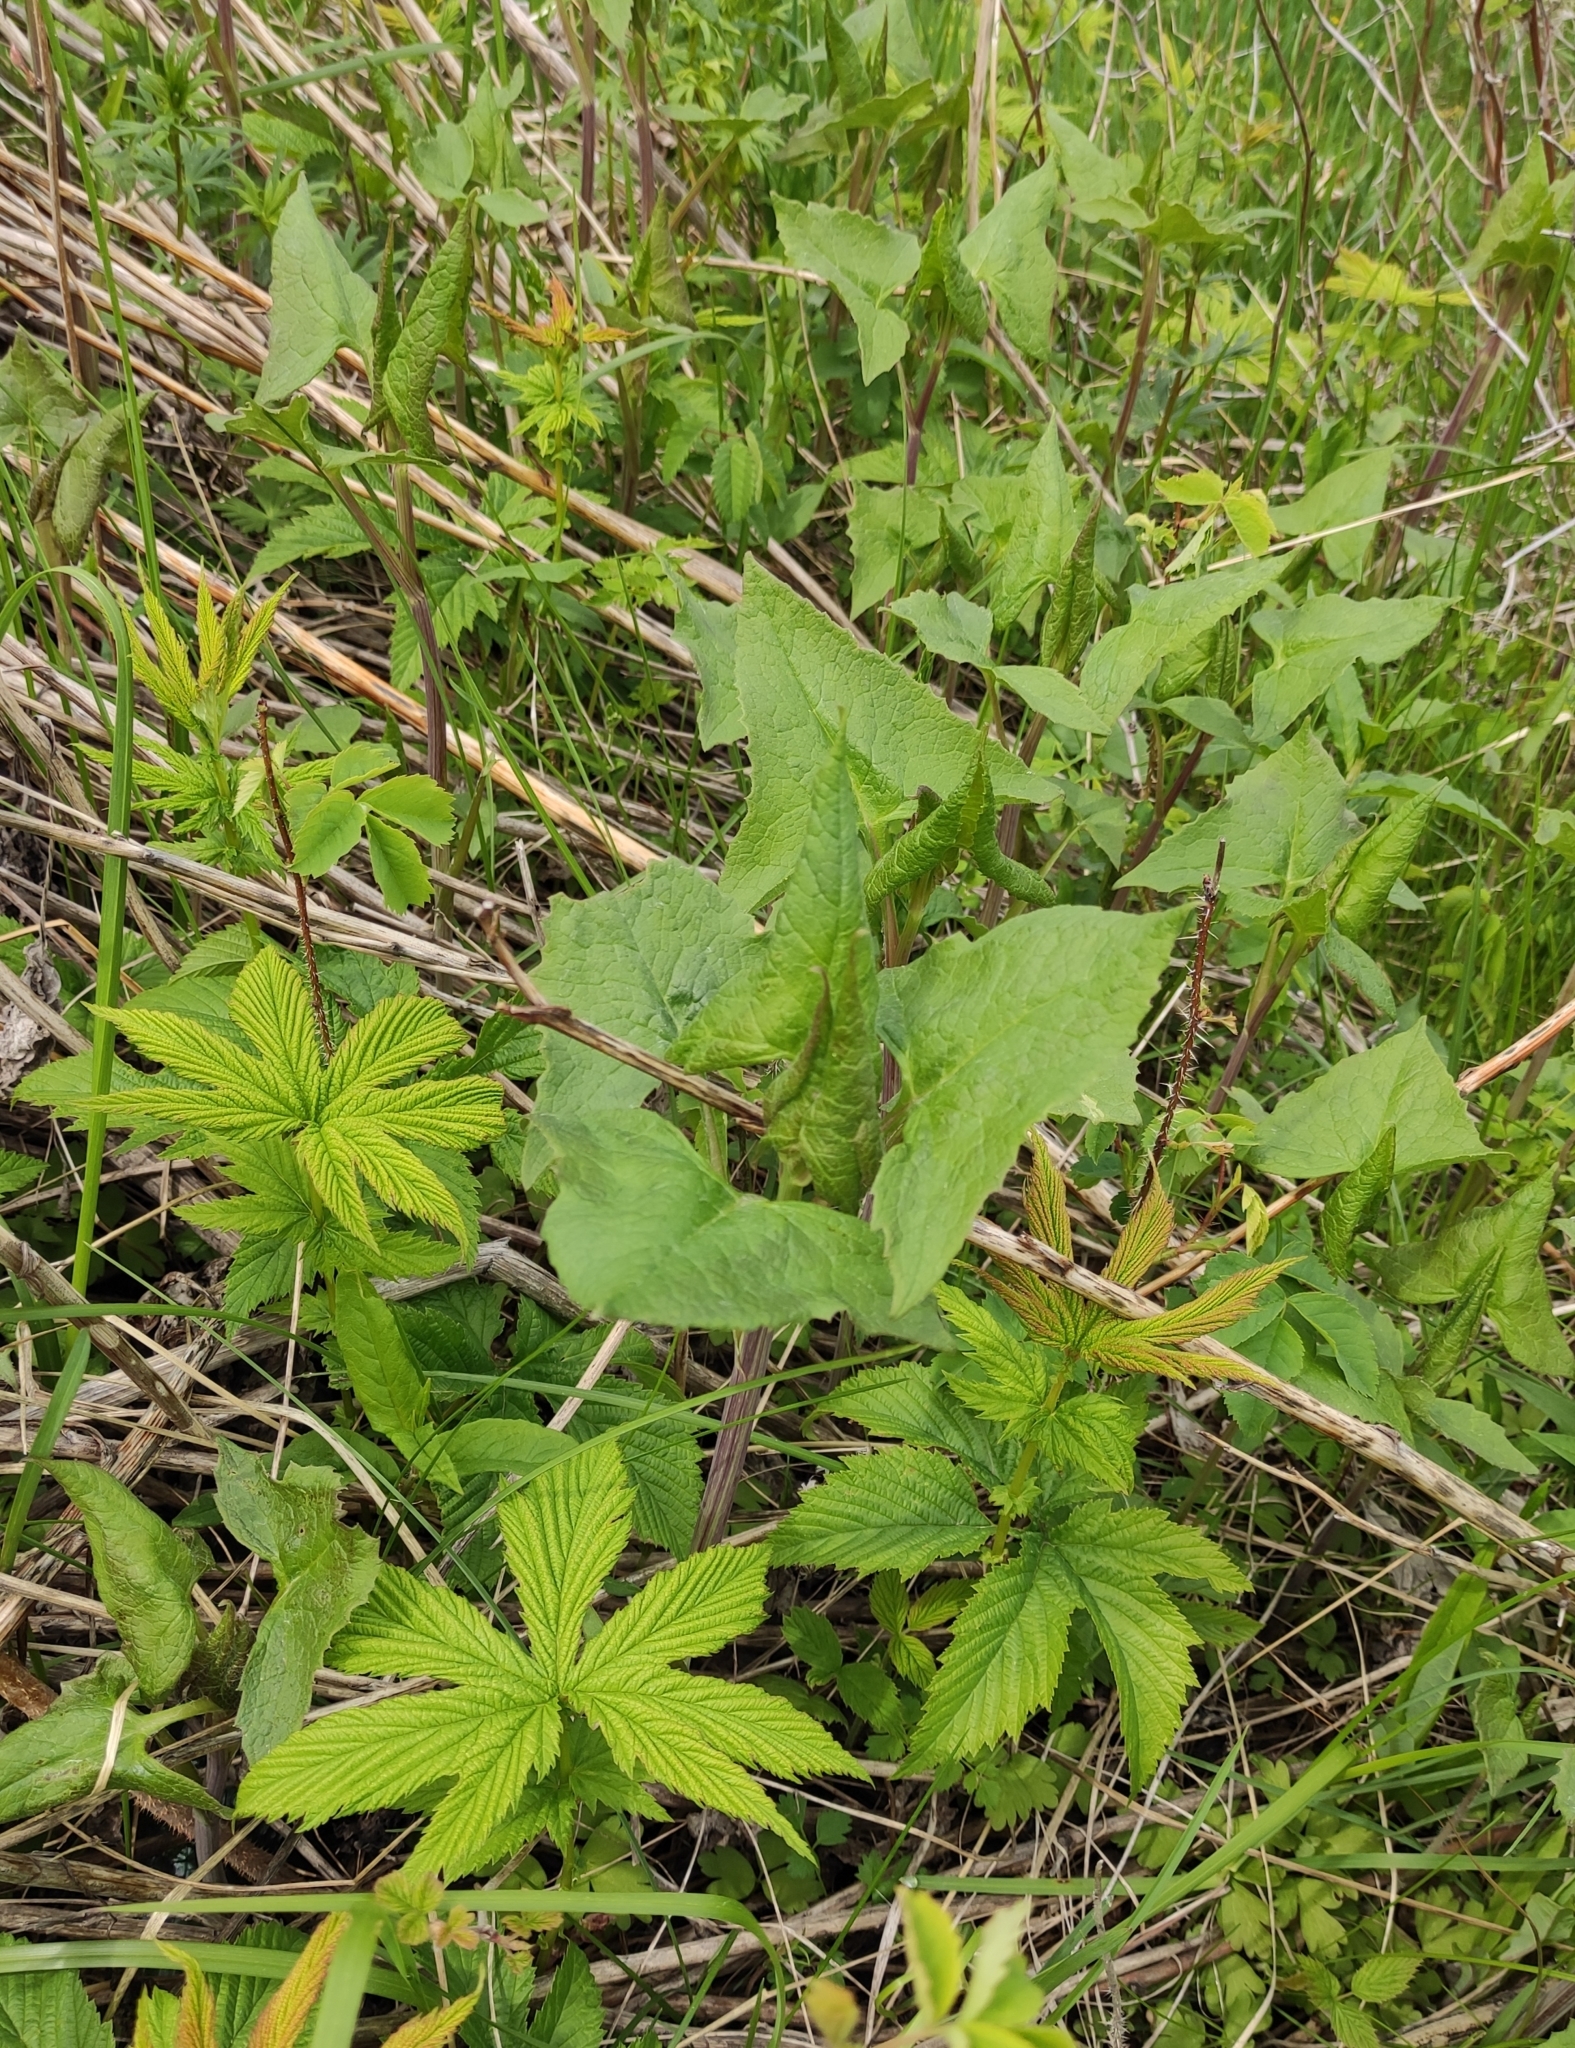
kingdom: Plantae
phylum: Tracheophyta
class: Magnoliopsida
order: Asterales
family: Asteraceae
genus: Parasenecio
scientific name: Parasenecio hastatus
